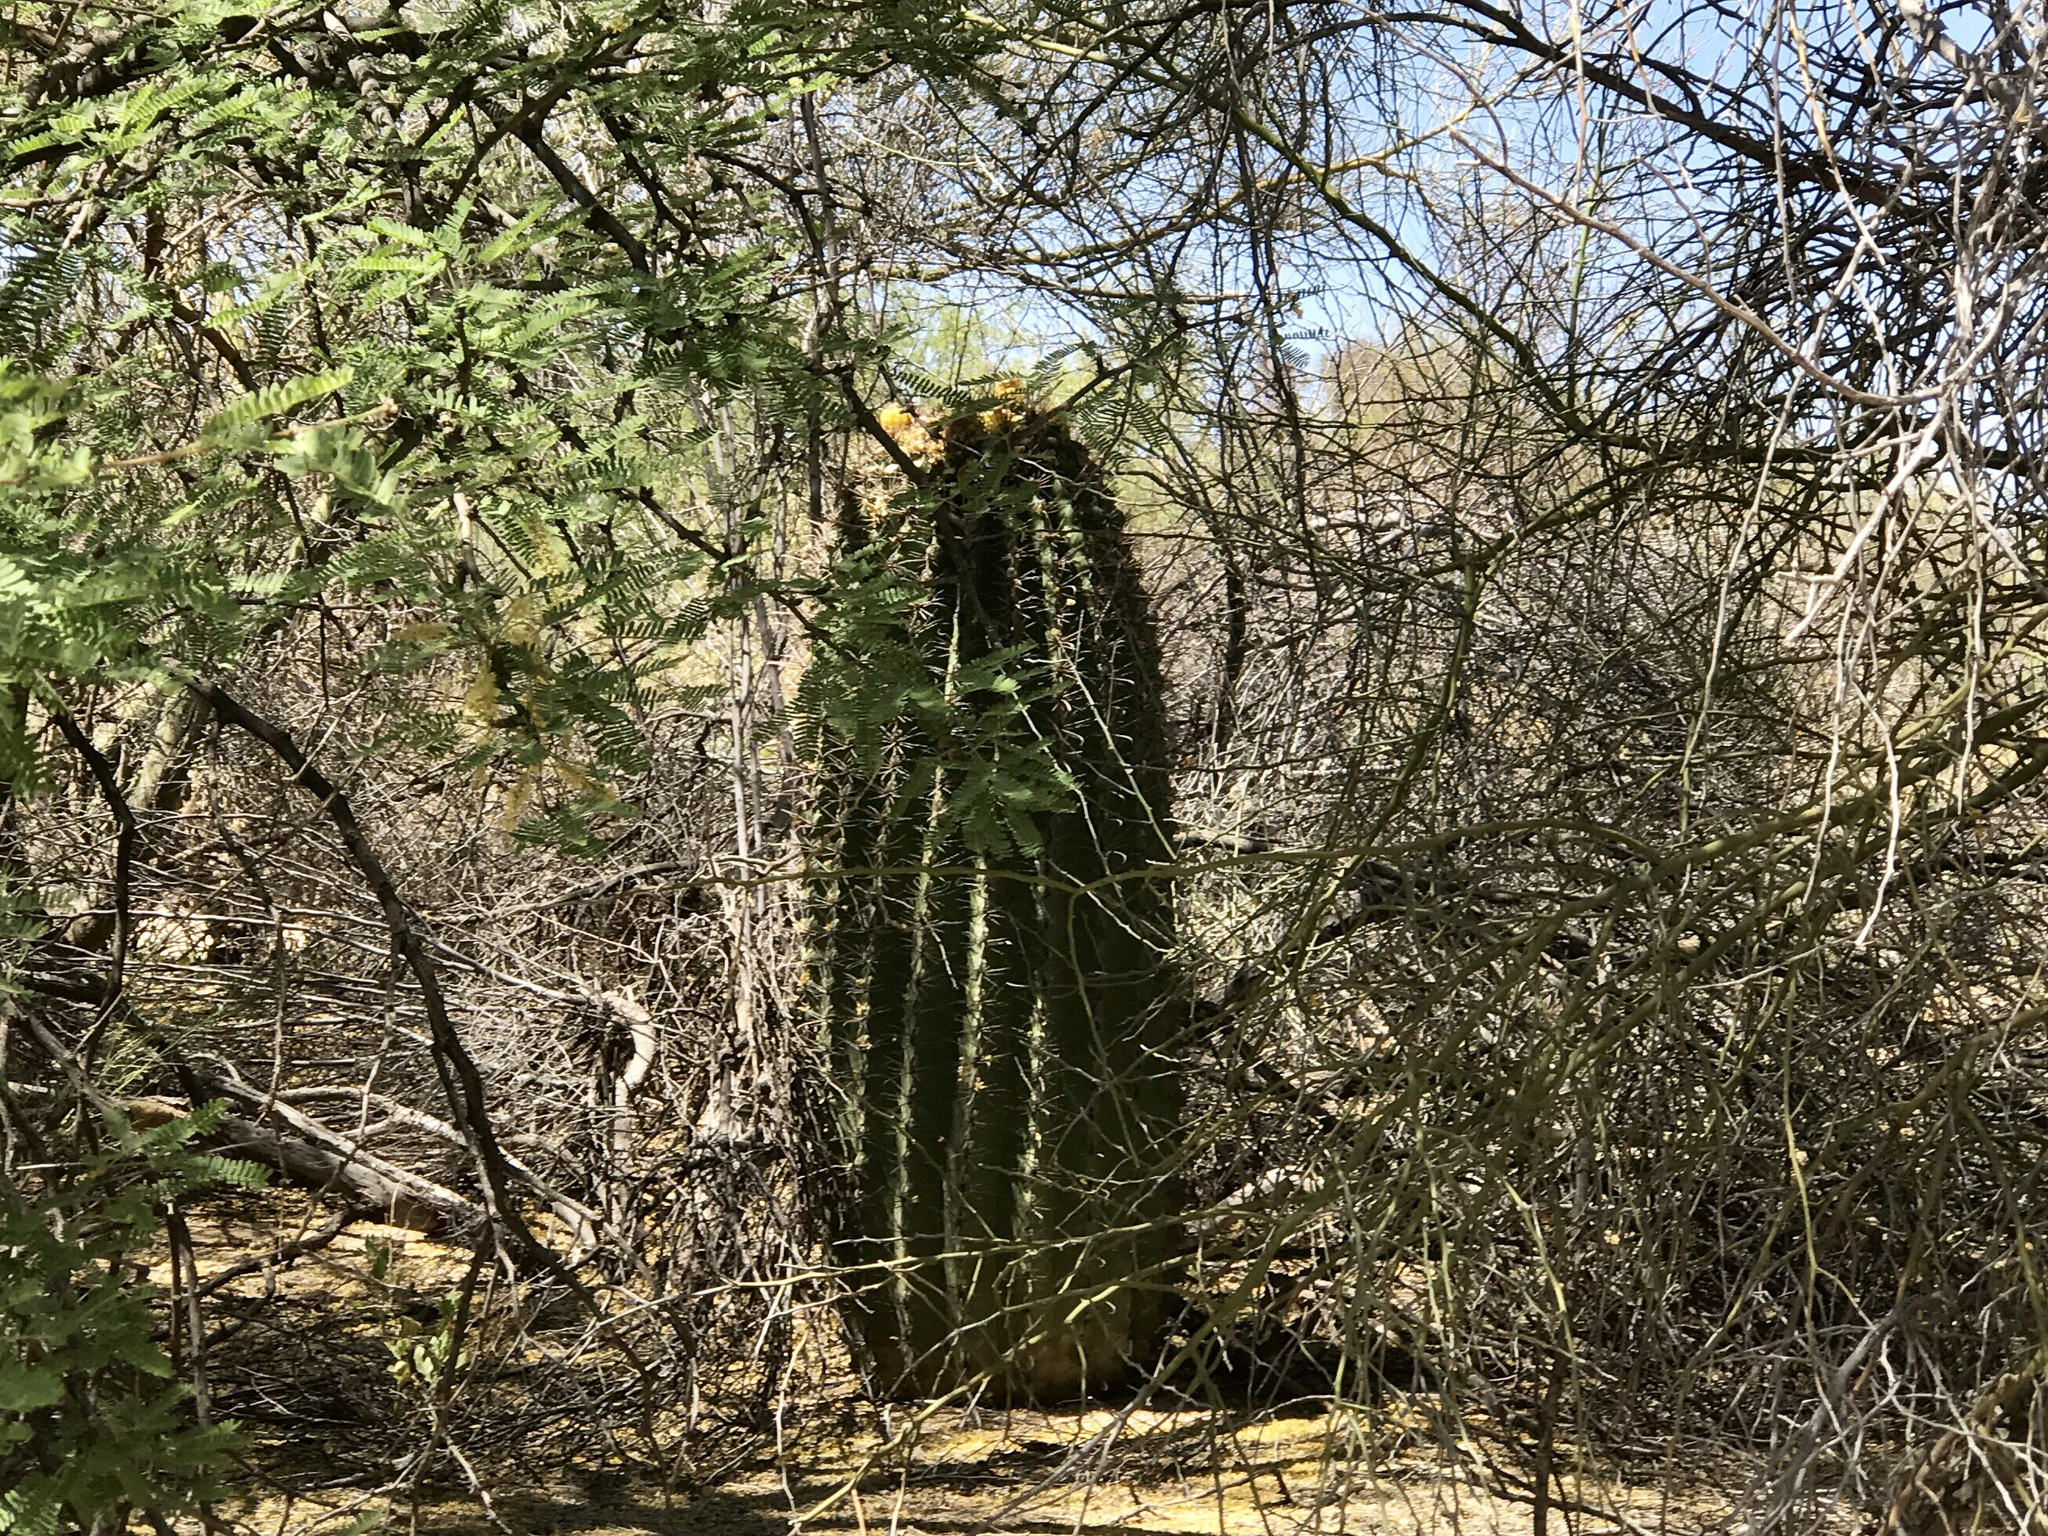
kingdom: Plantae
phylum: Tracheophyta
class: Magnoliopsida
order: Caryophyllales
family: Cactaceae
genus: Ferocactus
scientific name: Ferocactus wislizeni
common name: Candy barrel cactus
